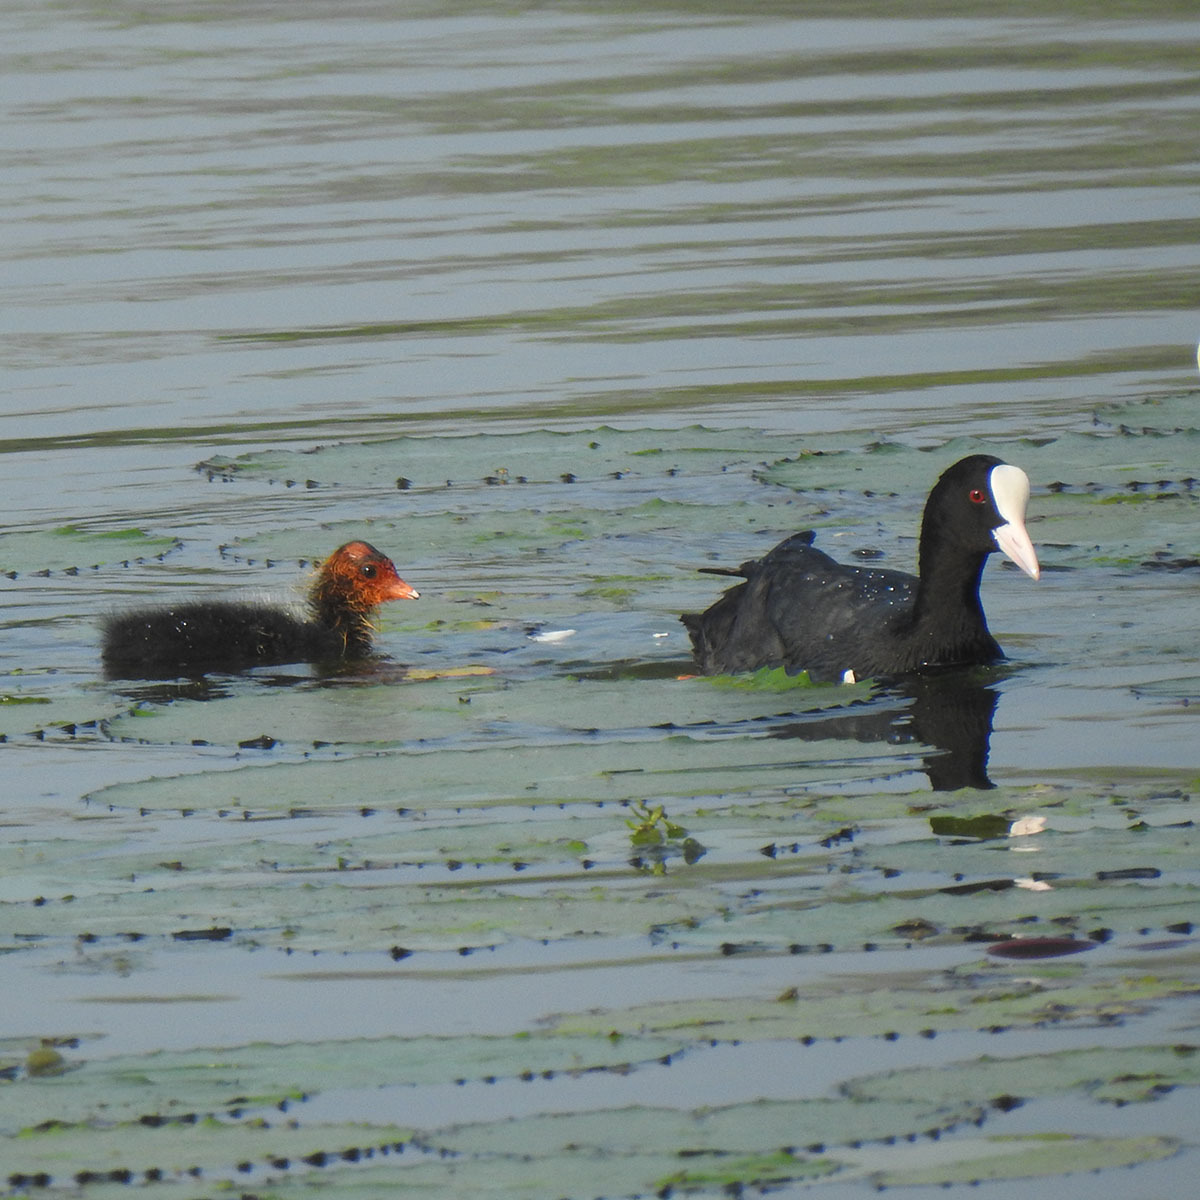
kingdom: Animalia
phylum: Chordata
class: Aves
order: Gruiformes
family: Rallidae
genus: Fulica
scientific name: Fulica atra
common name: Eurasian coot
